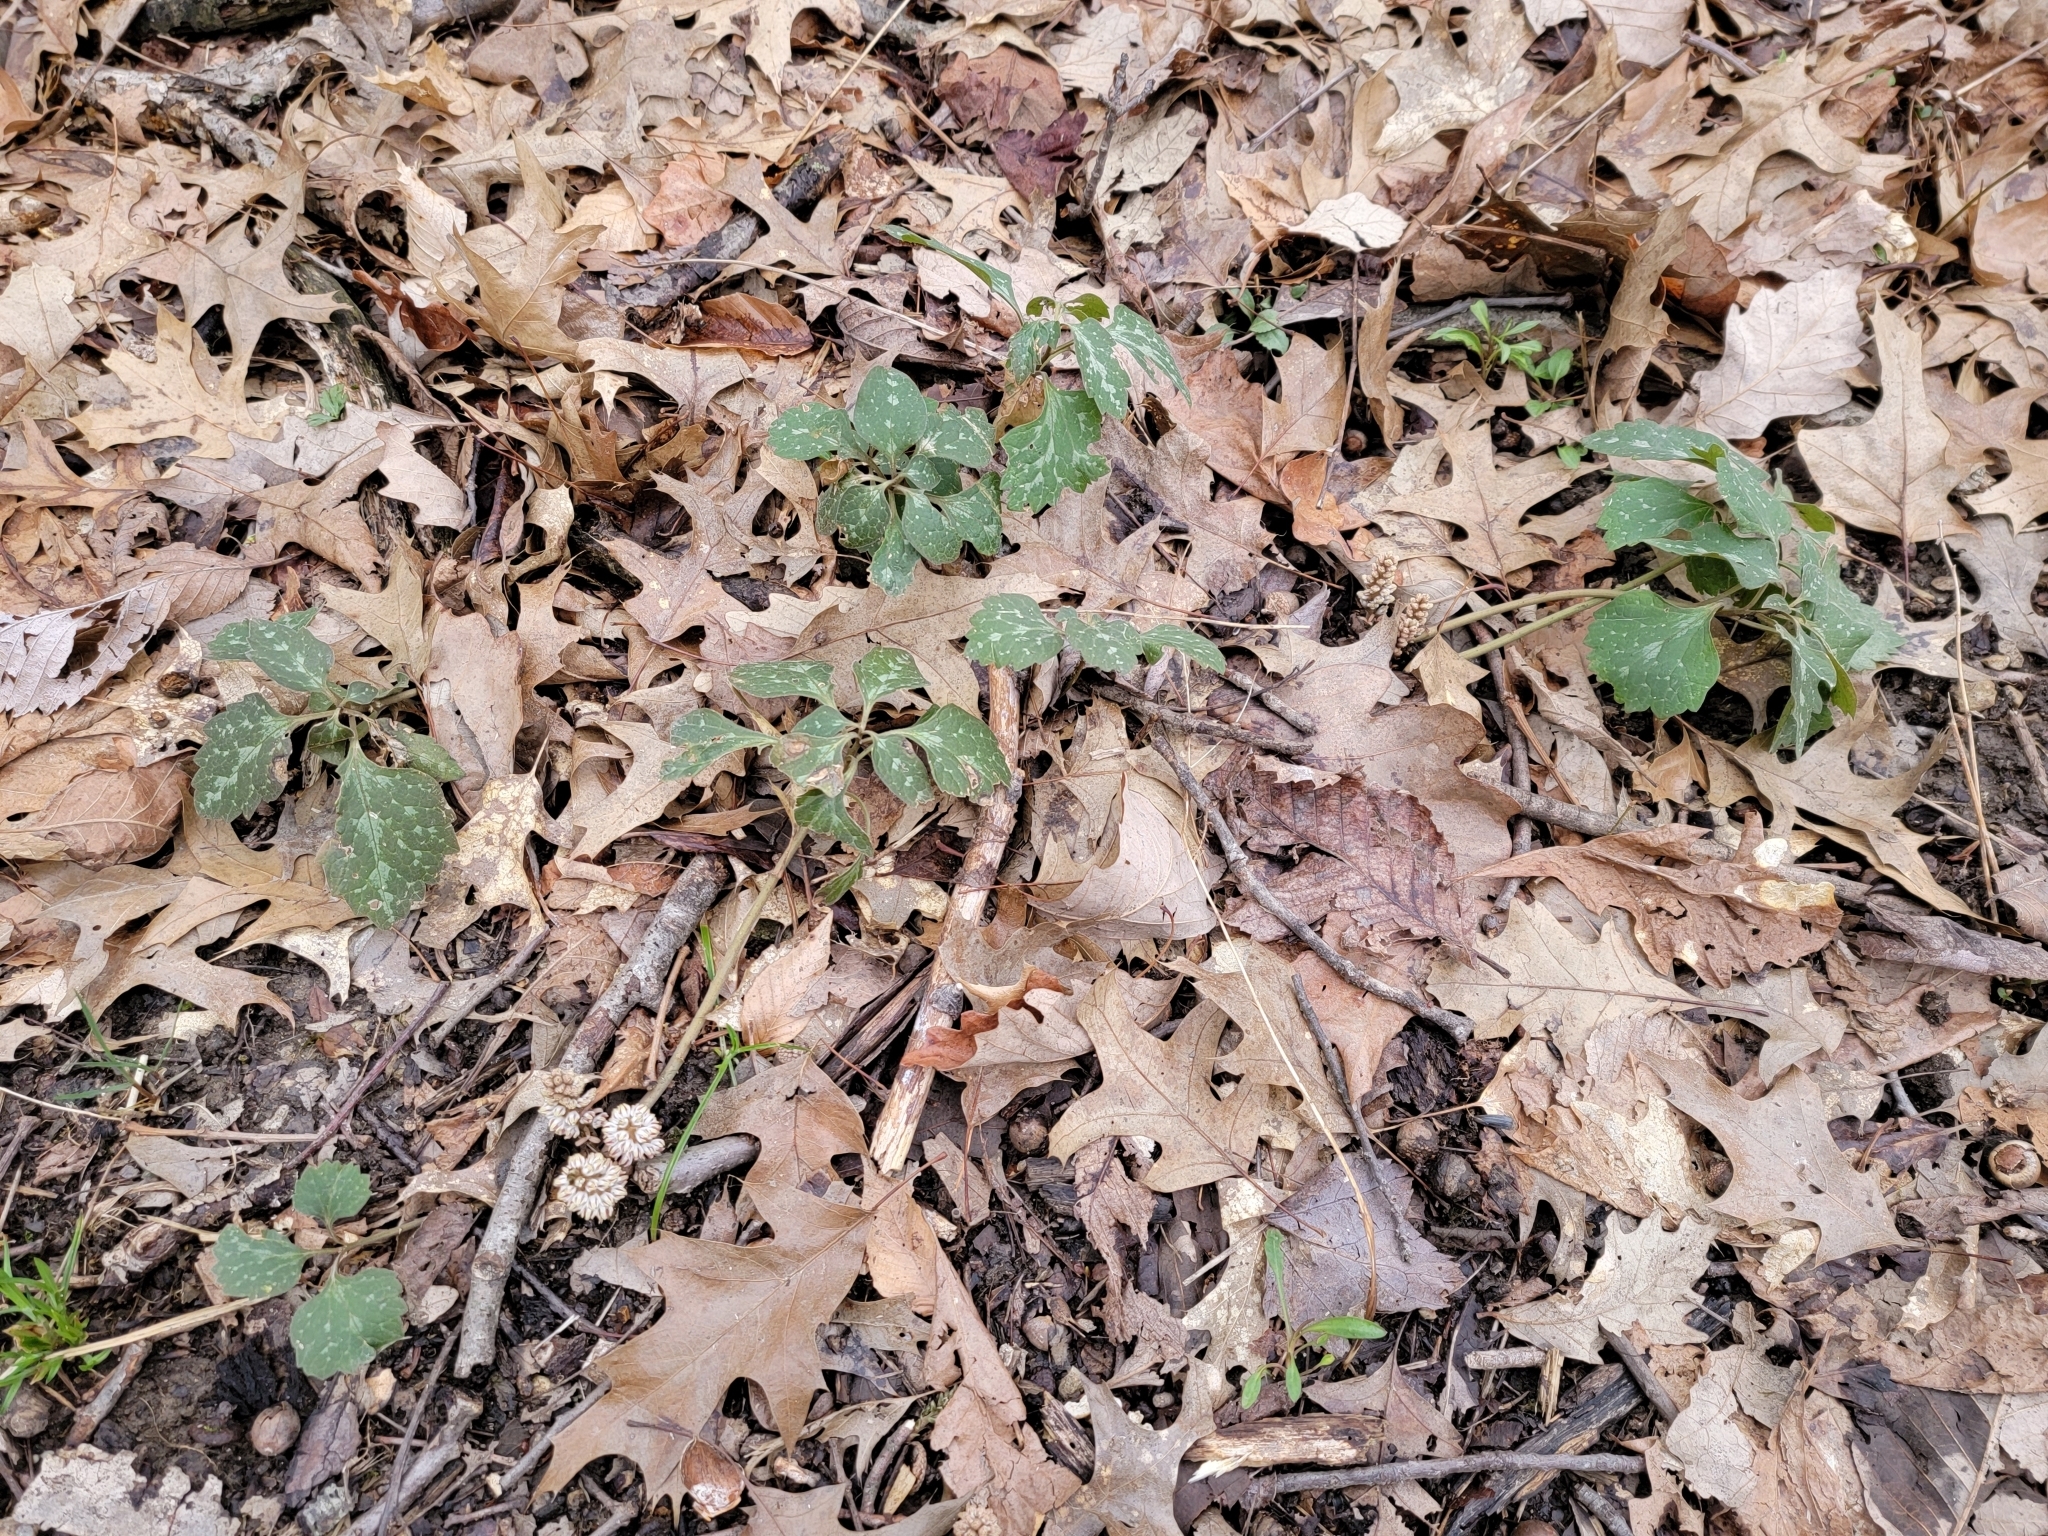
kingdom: Plantae
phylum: Tracheophyta
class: Magnoliopsida
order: Buxales
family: Buxaceae
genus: Pachysandra
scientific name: Pachysandra procumbens
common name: Mountain-spurge
